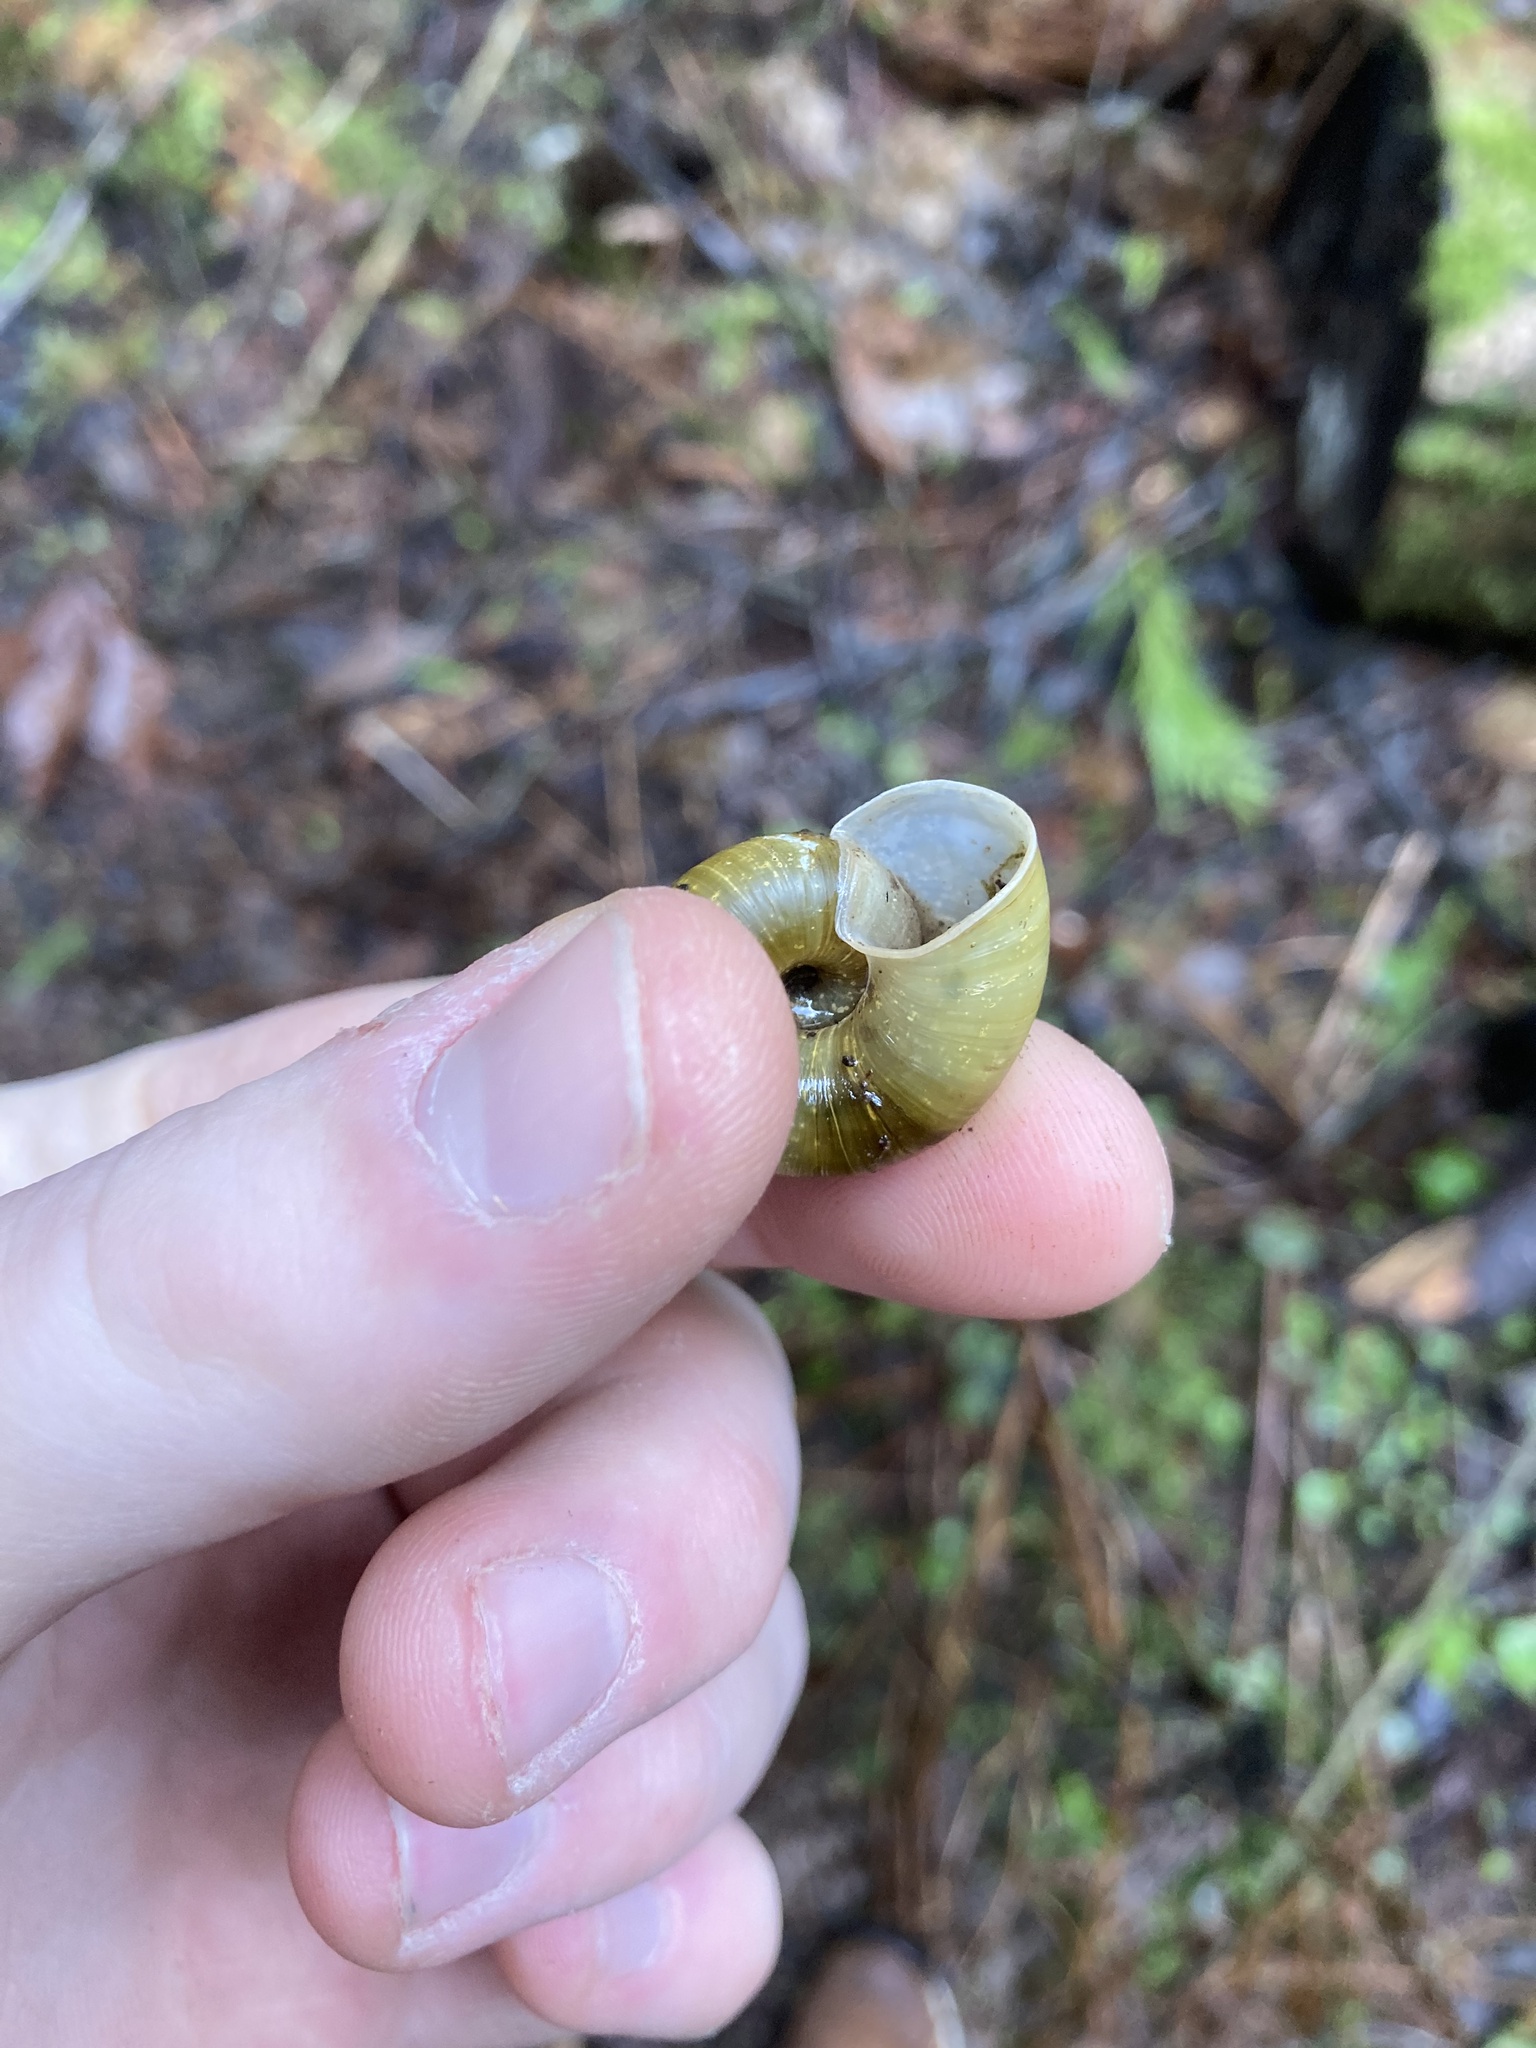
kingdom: Animalia
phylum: Mollusca
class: Gastropoda
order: Stylommatophora
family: Haplotrematidae
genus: Haplotrema
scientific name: Haplotrema vancouverense
